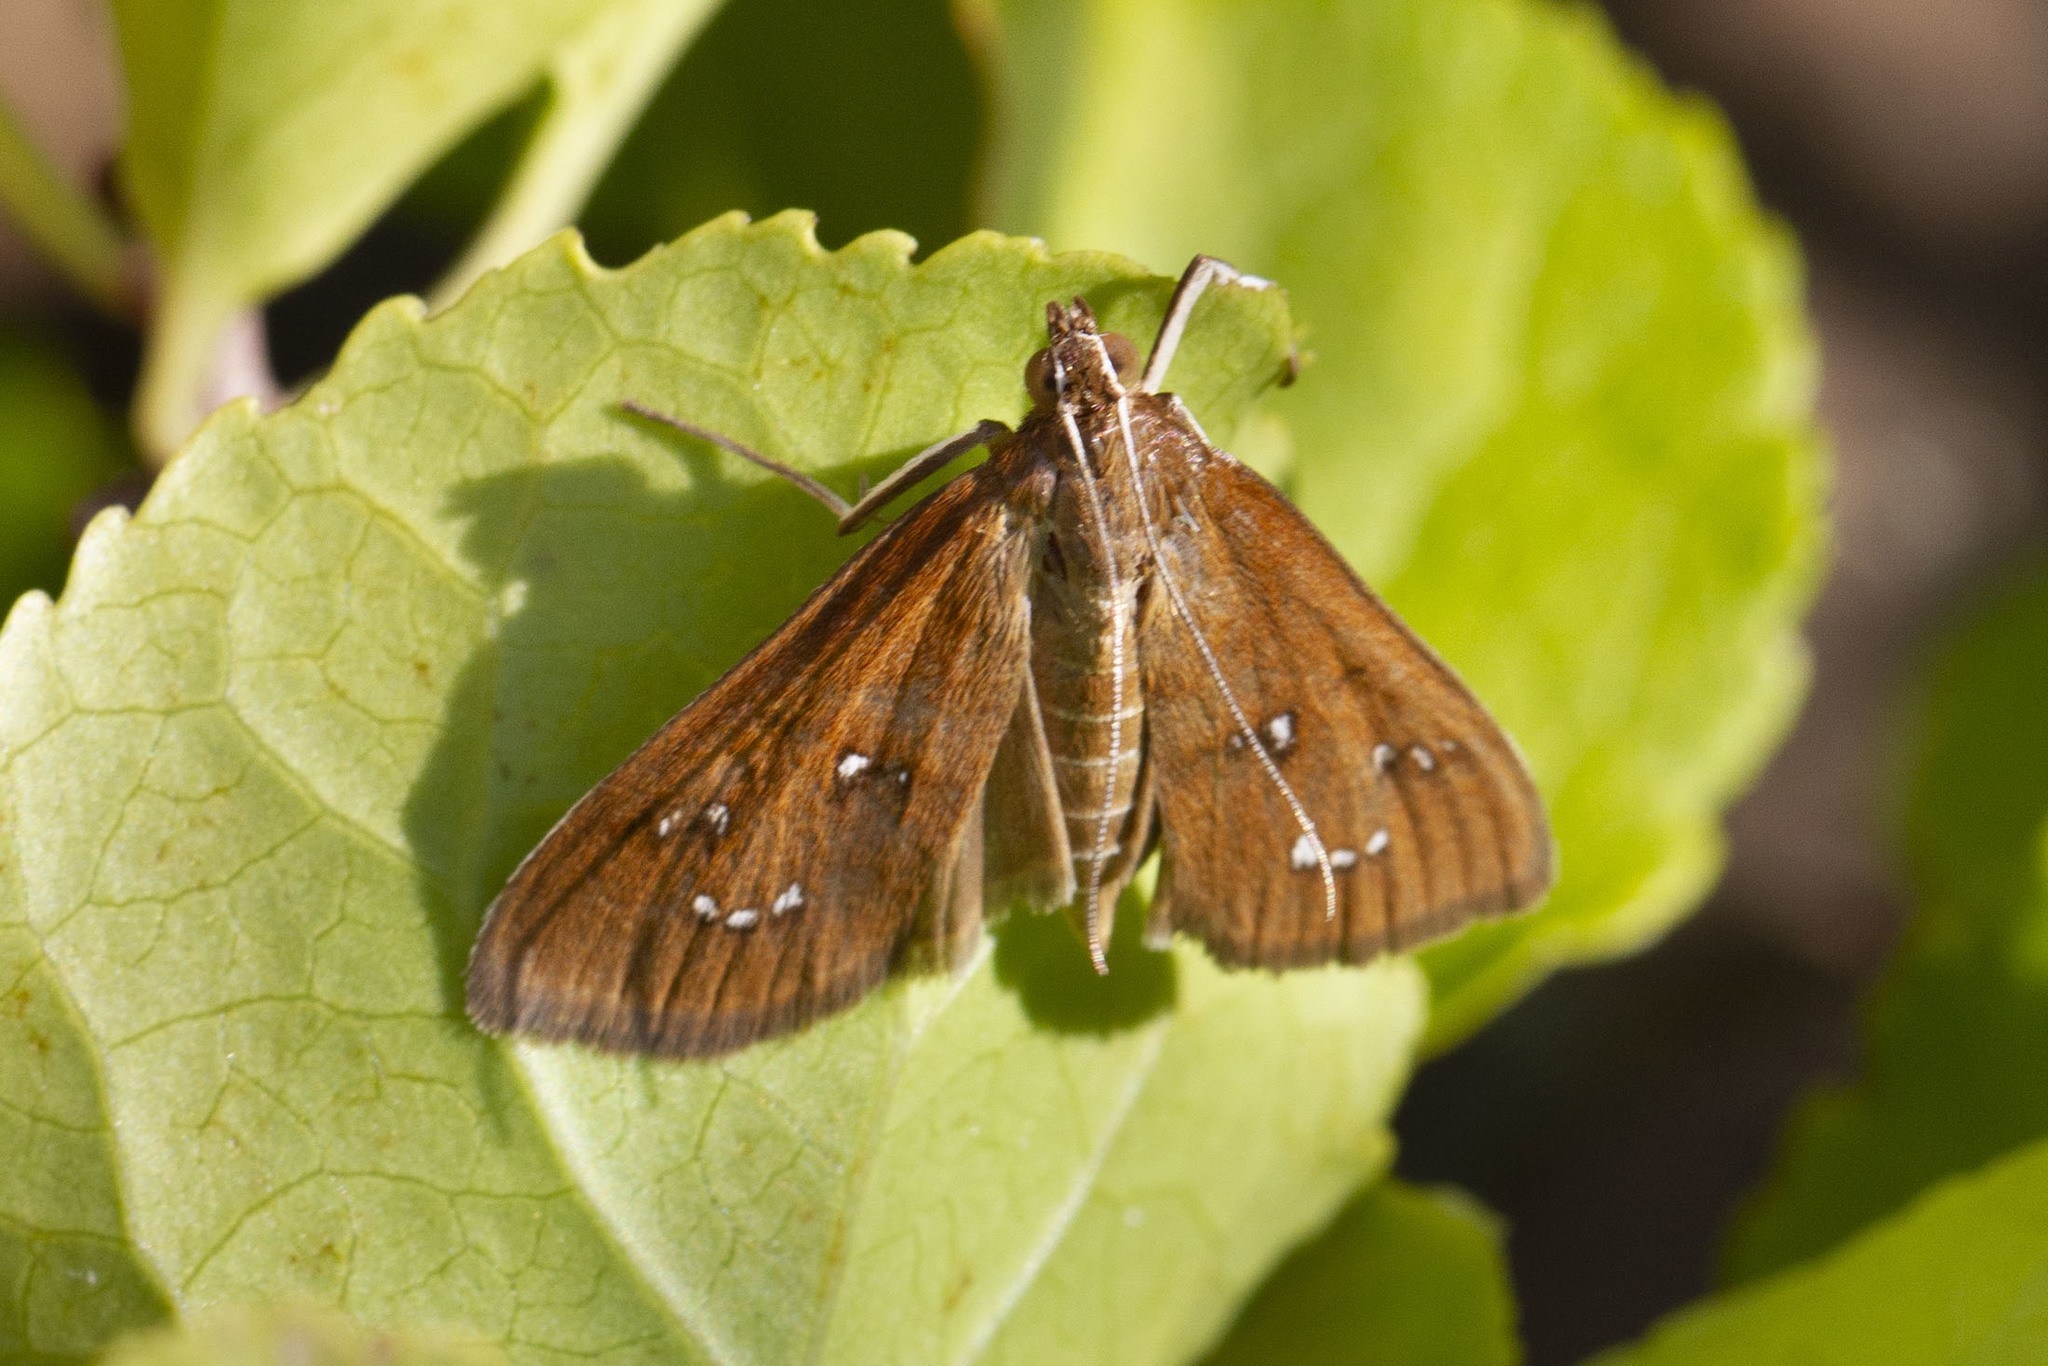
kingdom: Animalia
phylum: Arthropoda
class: Insecta
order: Lepidoptera
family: Crambidae
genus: Diastictis
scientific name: Diastictis ventralis
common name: White-spotted brown
